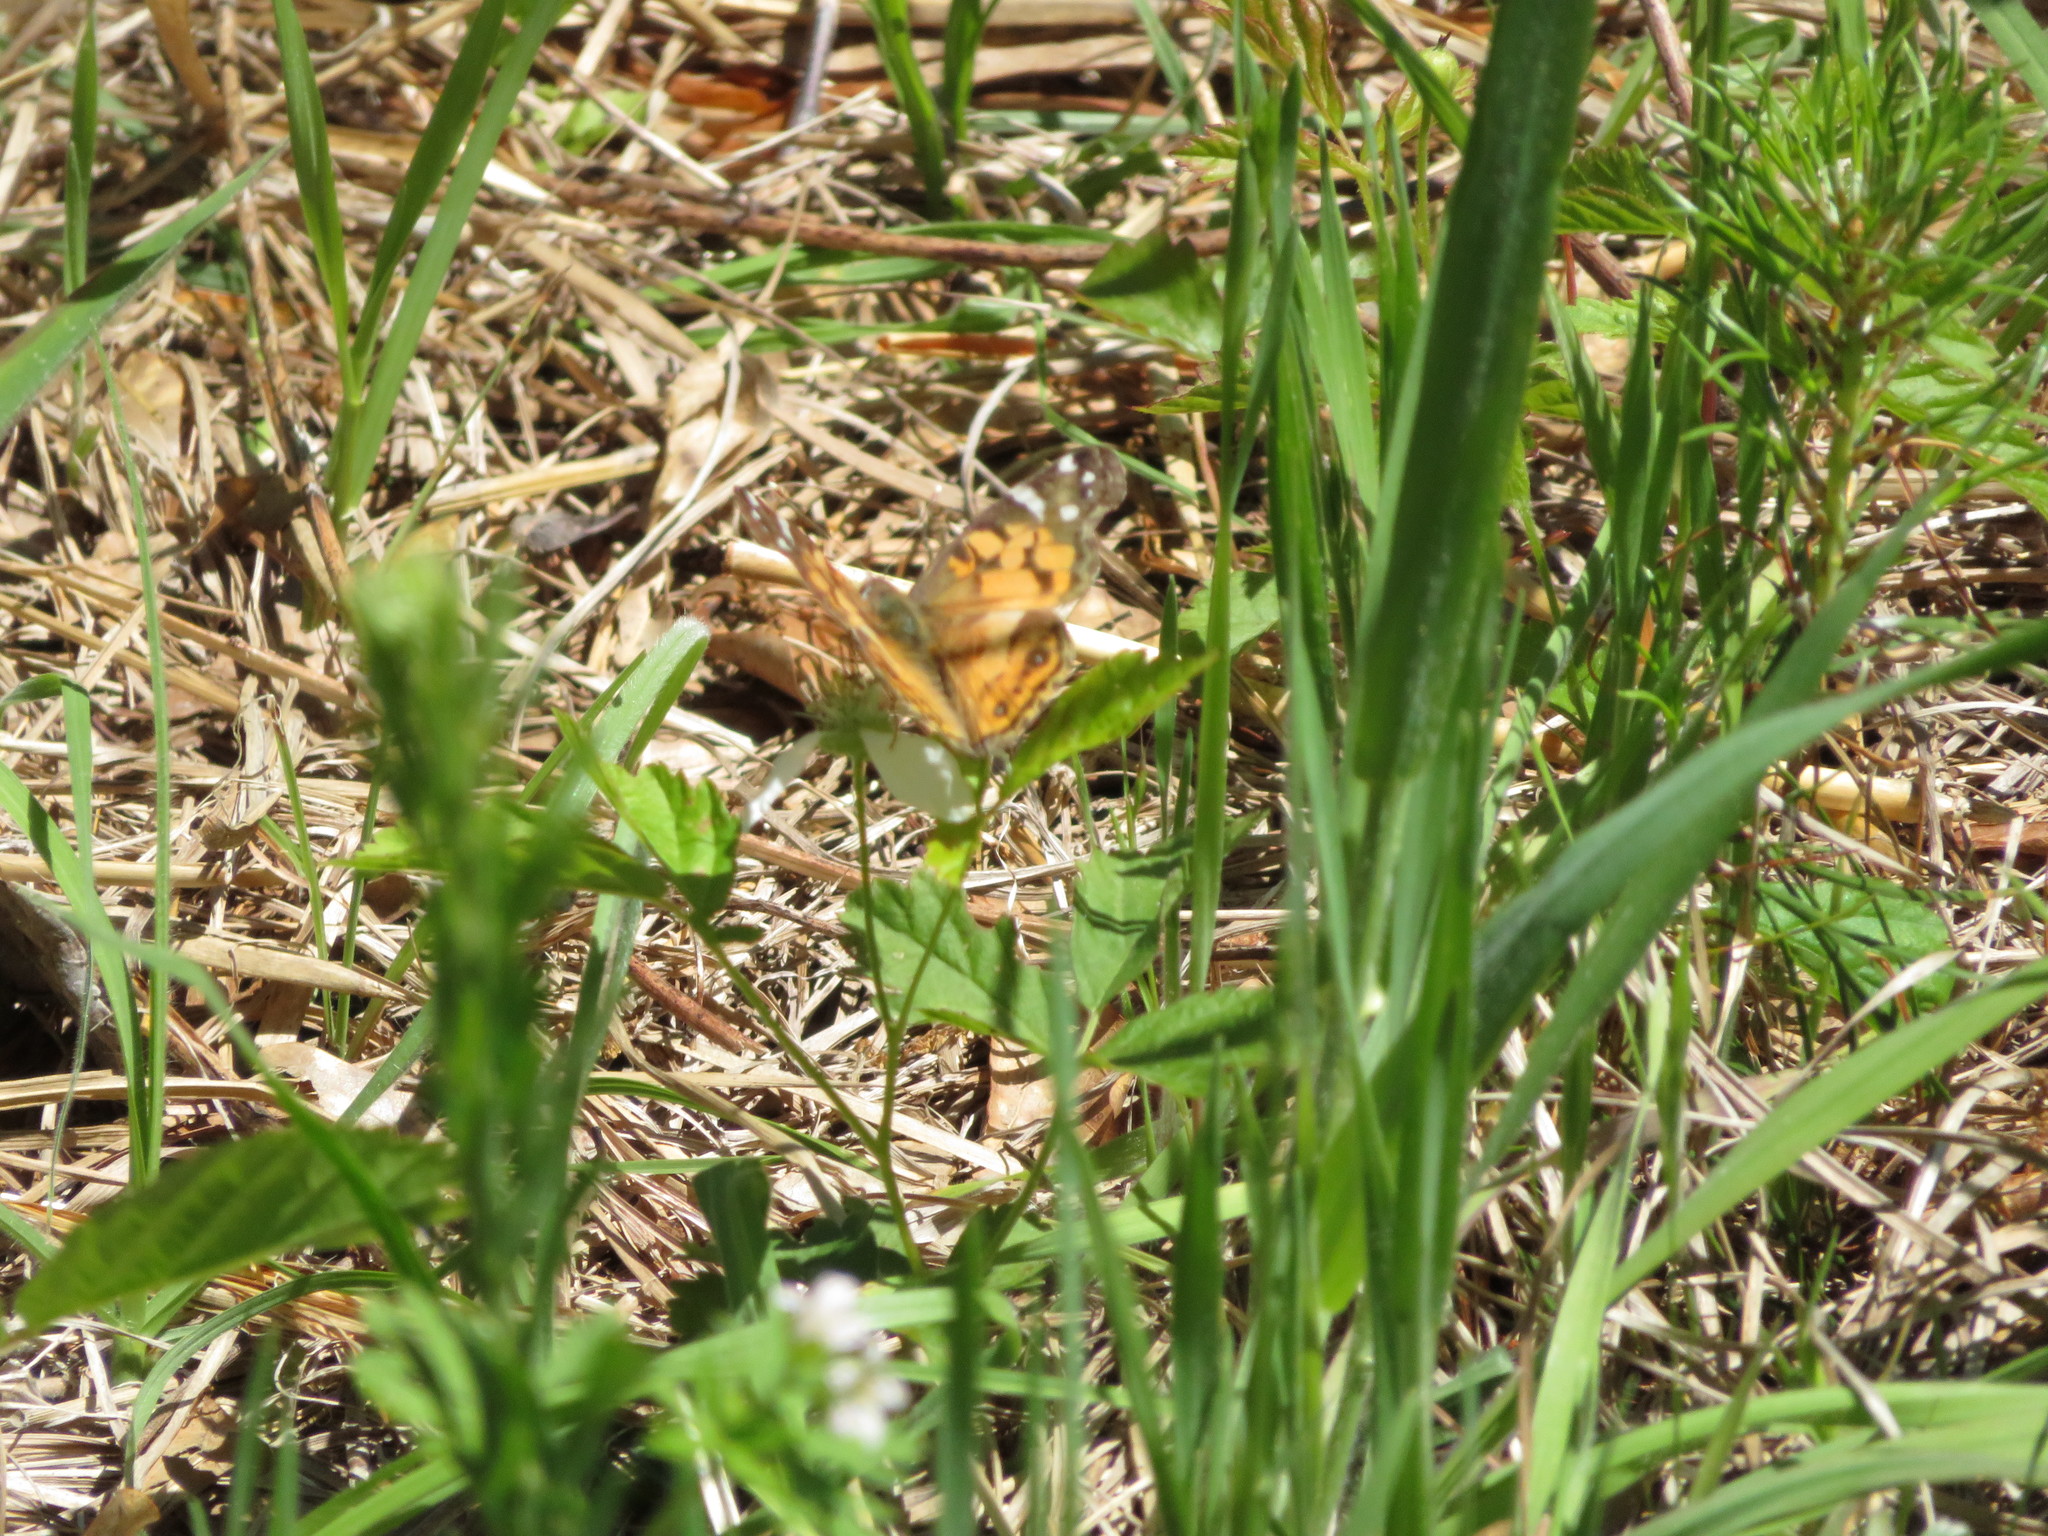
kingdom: Animalia
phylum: Arthropoda
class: Insecta
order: Lepidoptera
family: Nymphalidae
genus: Vanessa
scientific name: Vanessa virginiensis
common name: American lady
